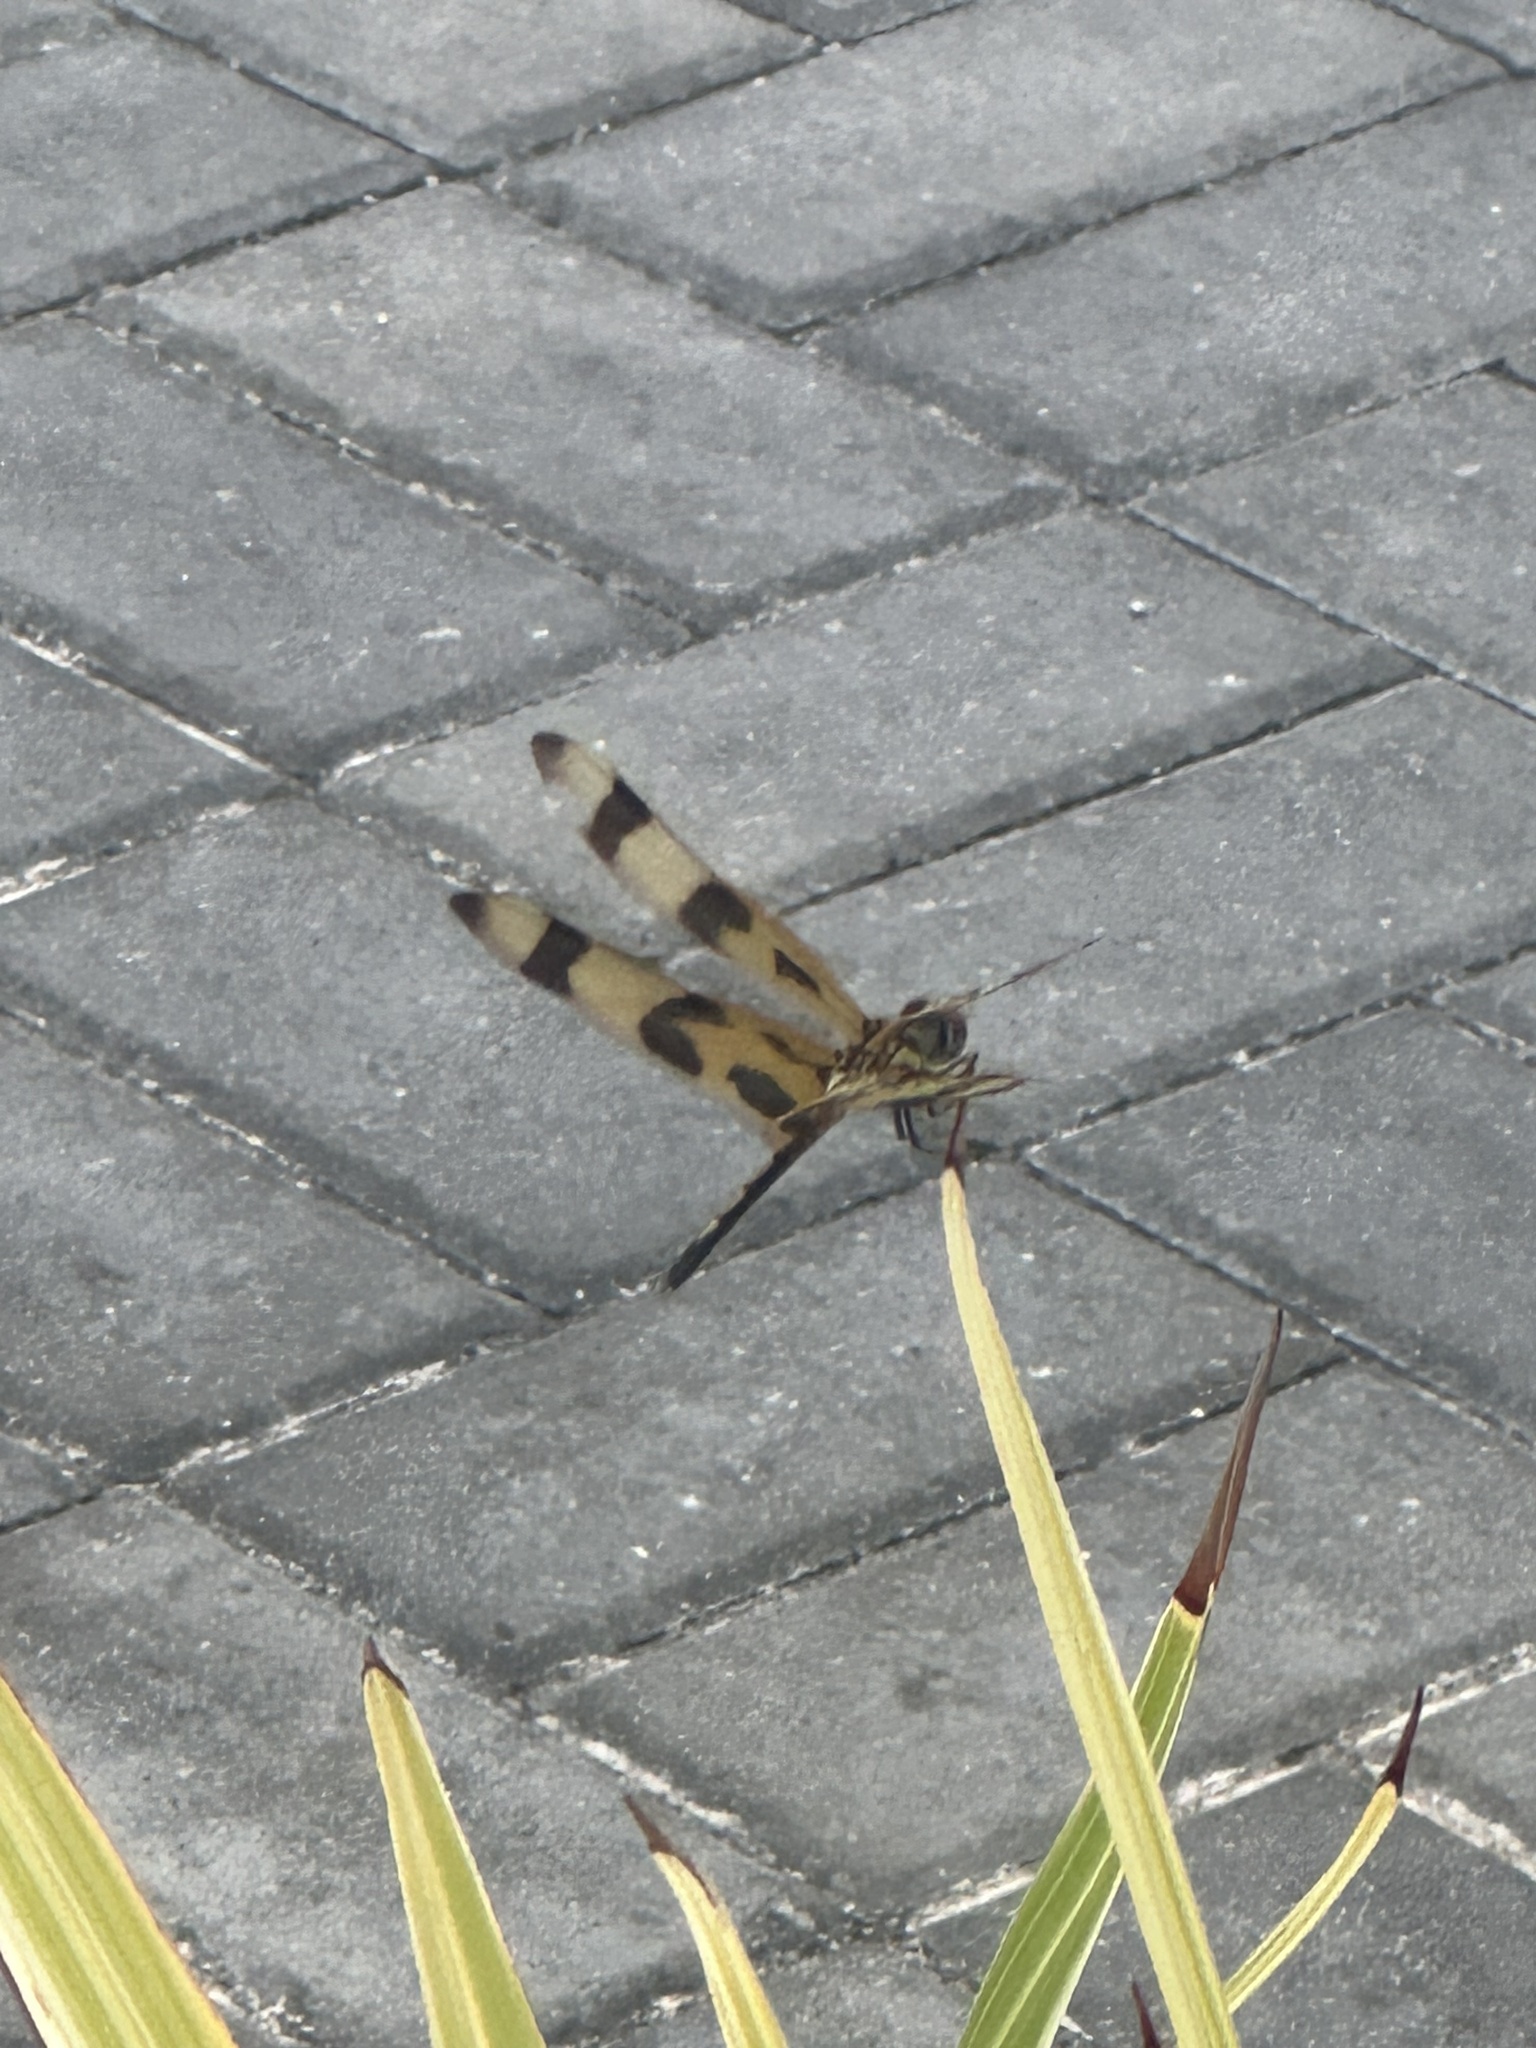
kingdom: Animalia
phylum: Arthropoda
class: Insecta
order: Odonata
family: Libellulidae
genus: Celithemis
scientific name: Celithemis eponina
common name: Halloween pennant
